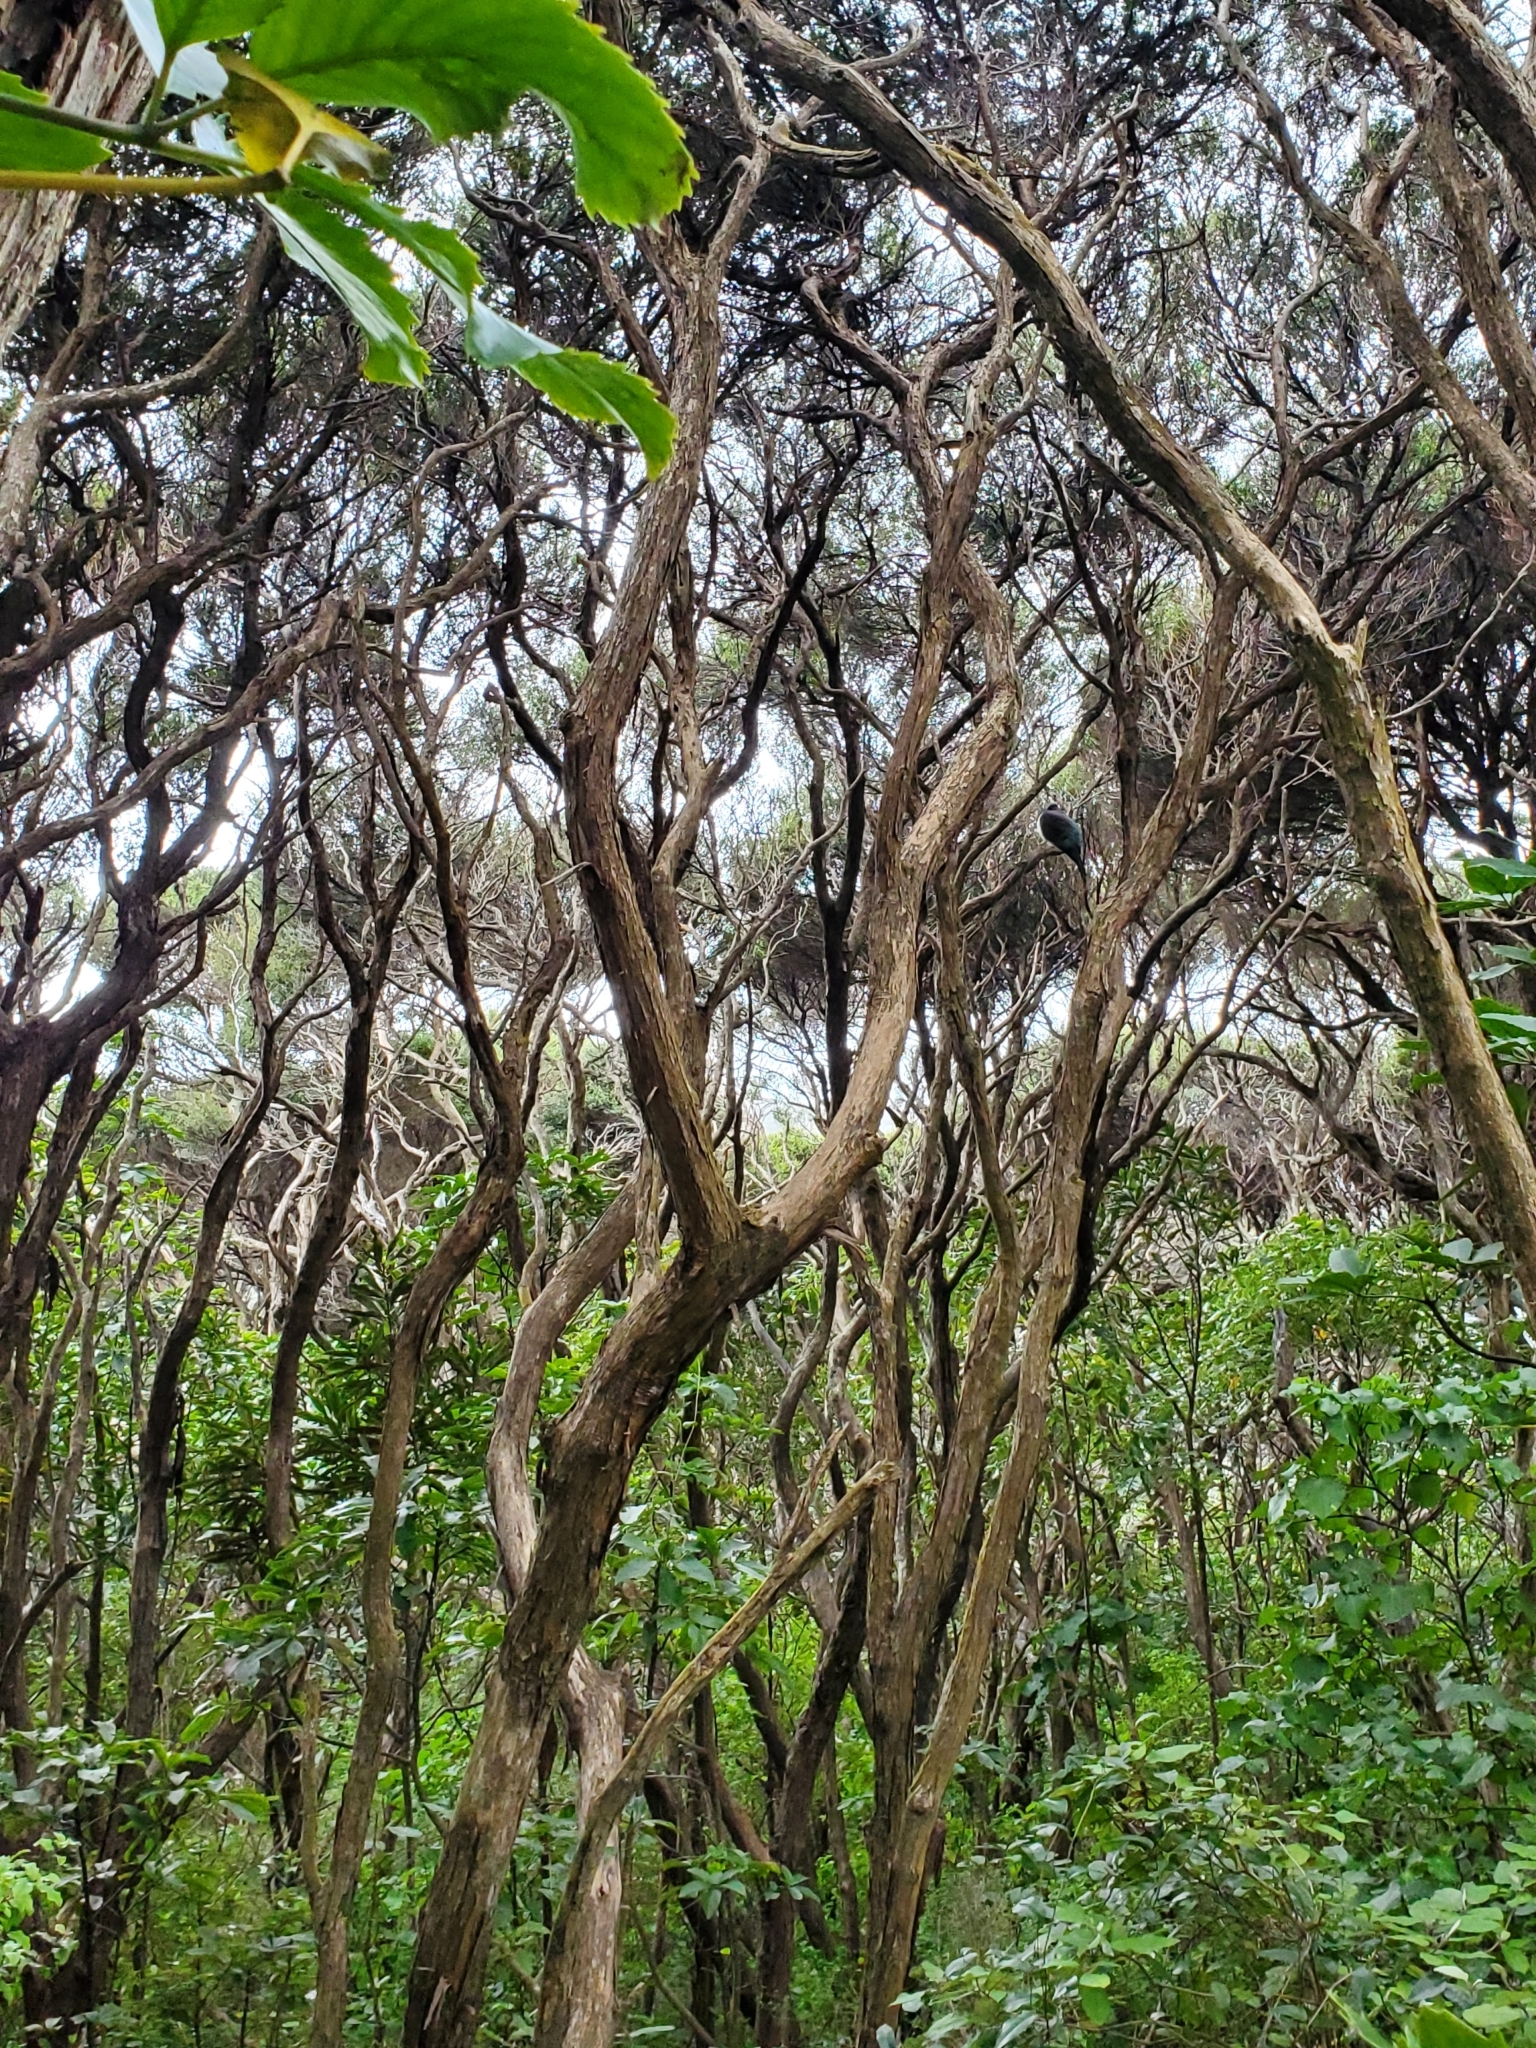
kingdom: Animalia
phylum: Chordata
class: Aves
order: Columbiformes
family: Columbidae
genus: Hemiphaga
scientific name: Hemiphaga novaeseelandiae
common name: New zealand pigeon
